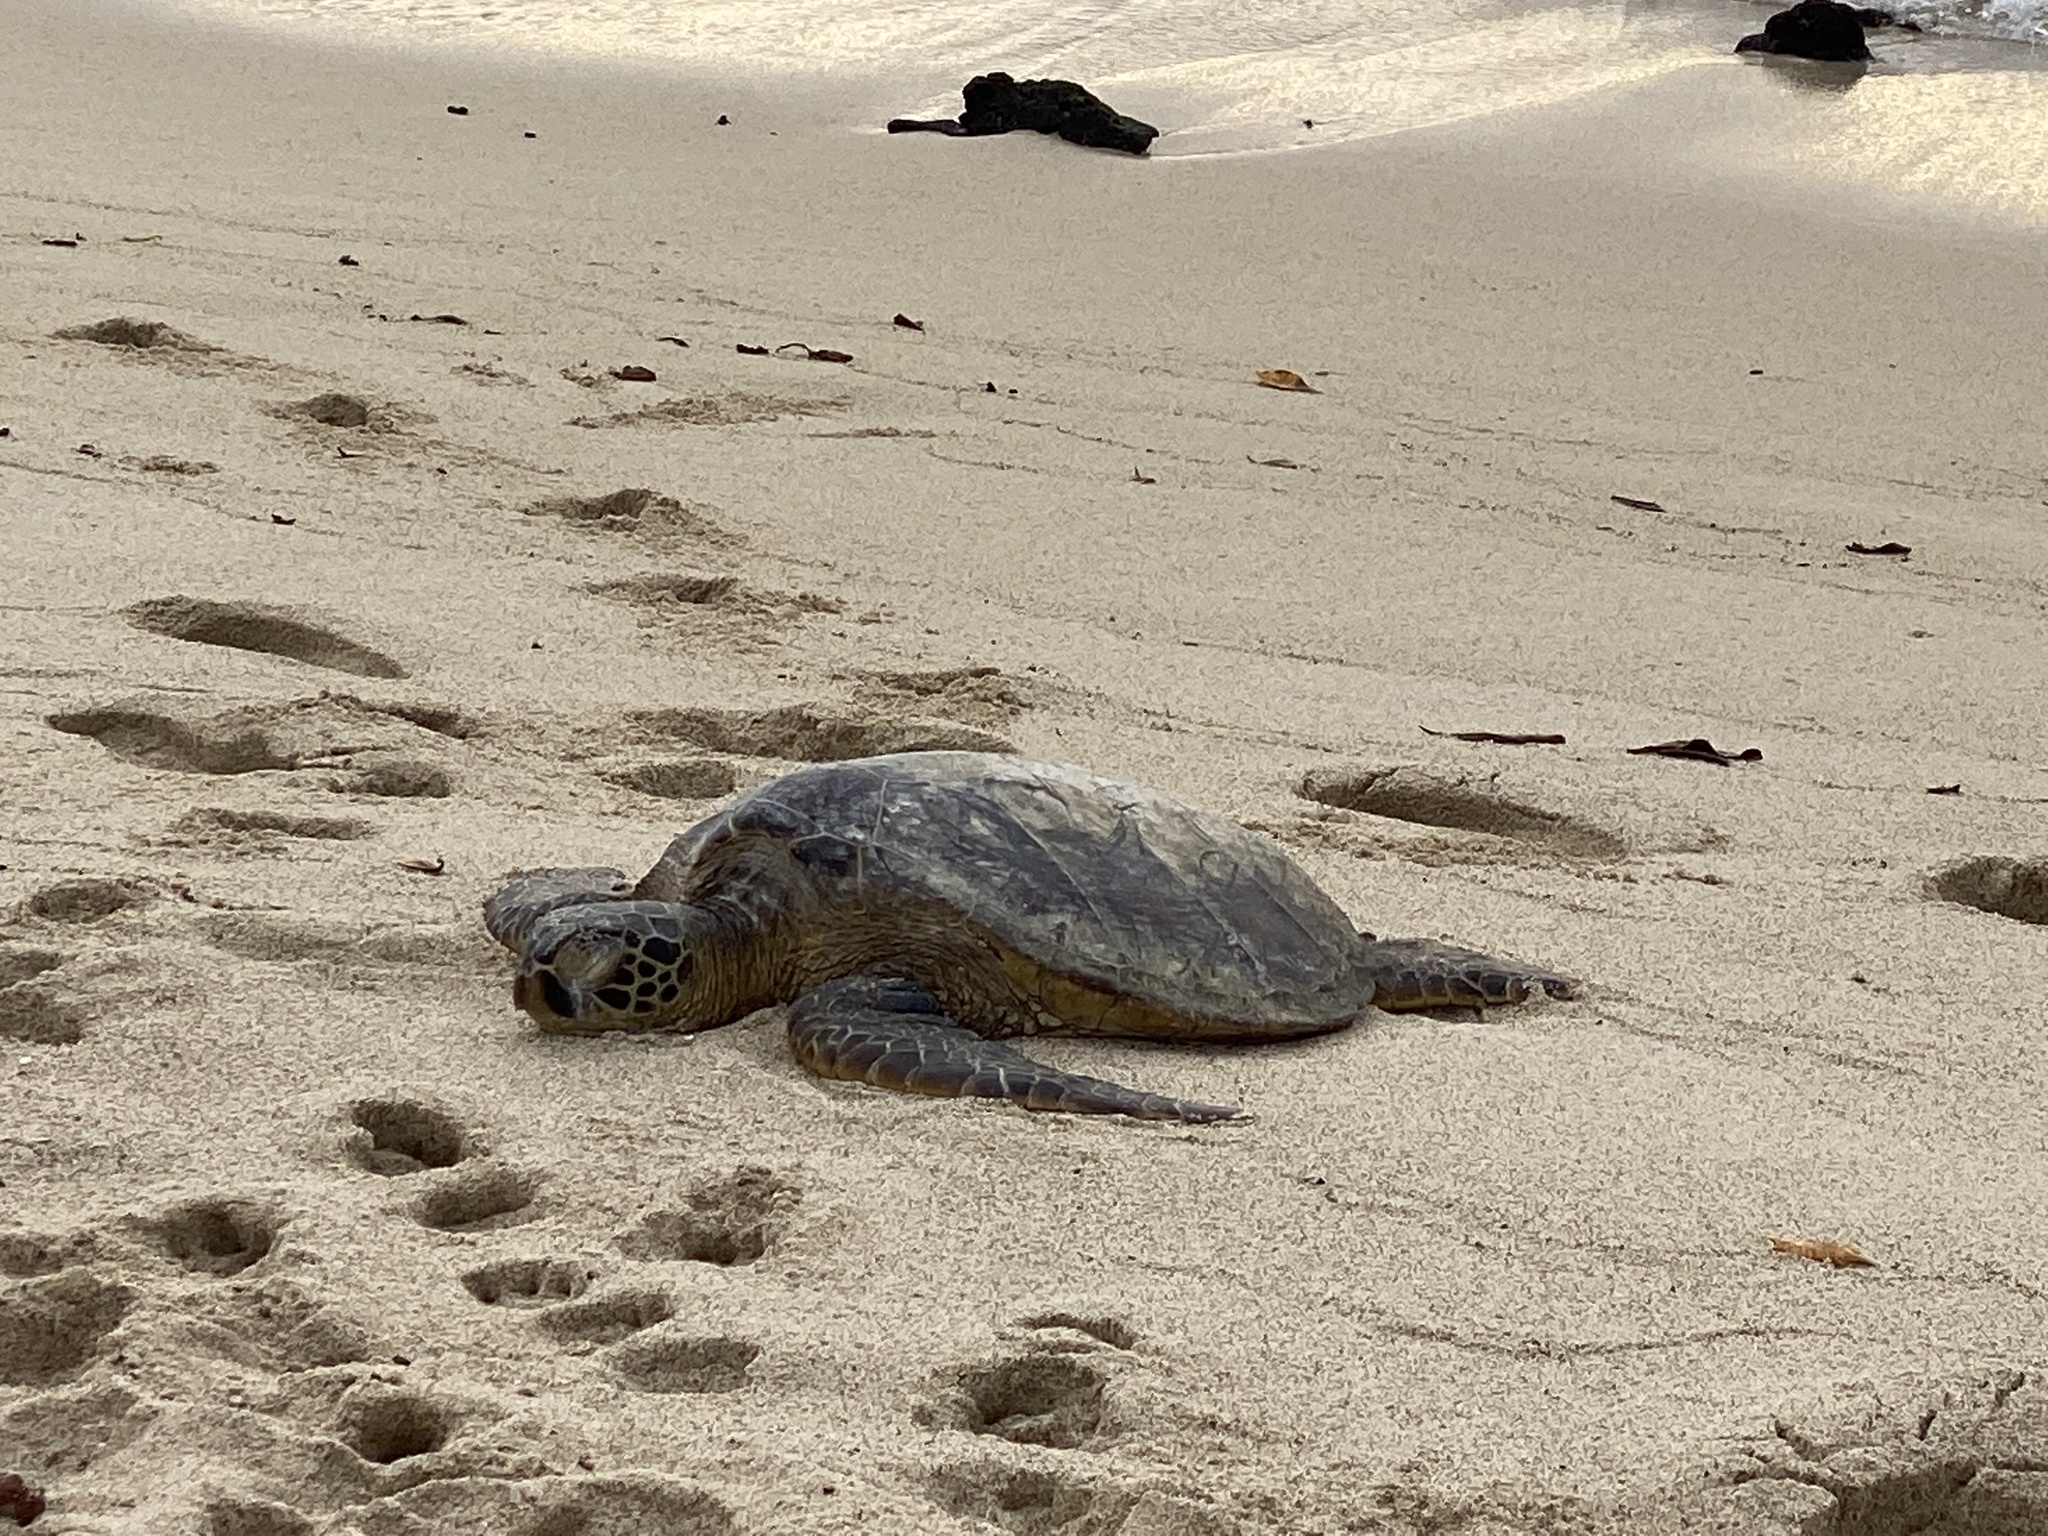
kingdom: Animalia
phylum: Chordata
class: Testudines
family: Cheloniidae
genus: Chelonia
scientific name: Chelonia mydas
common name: Green turtle
